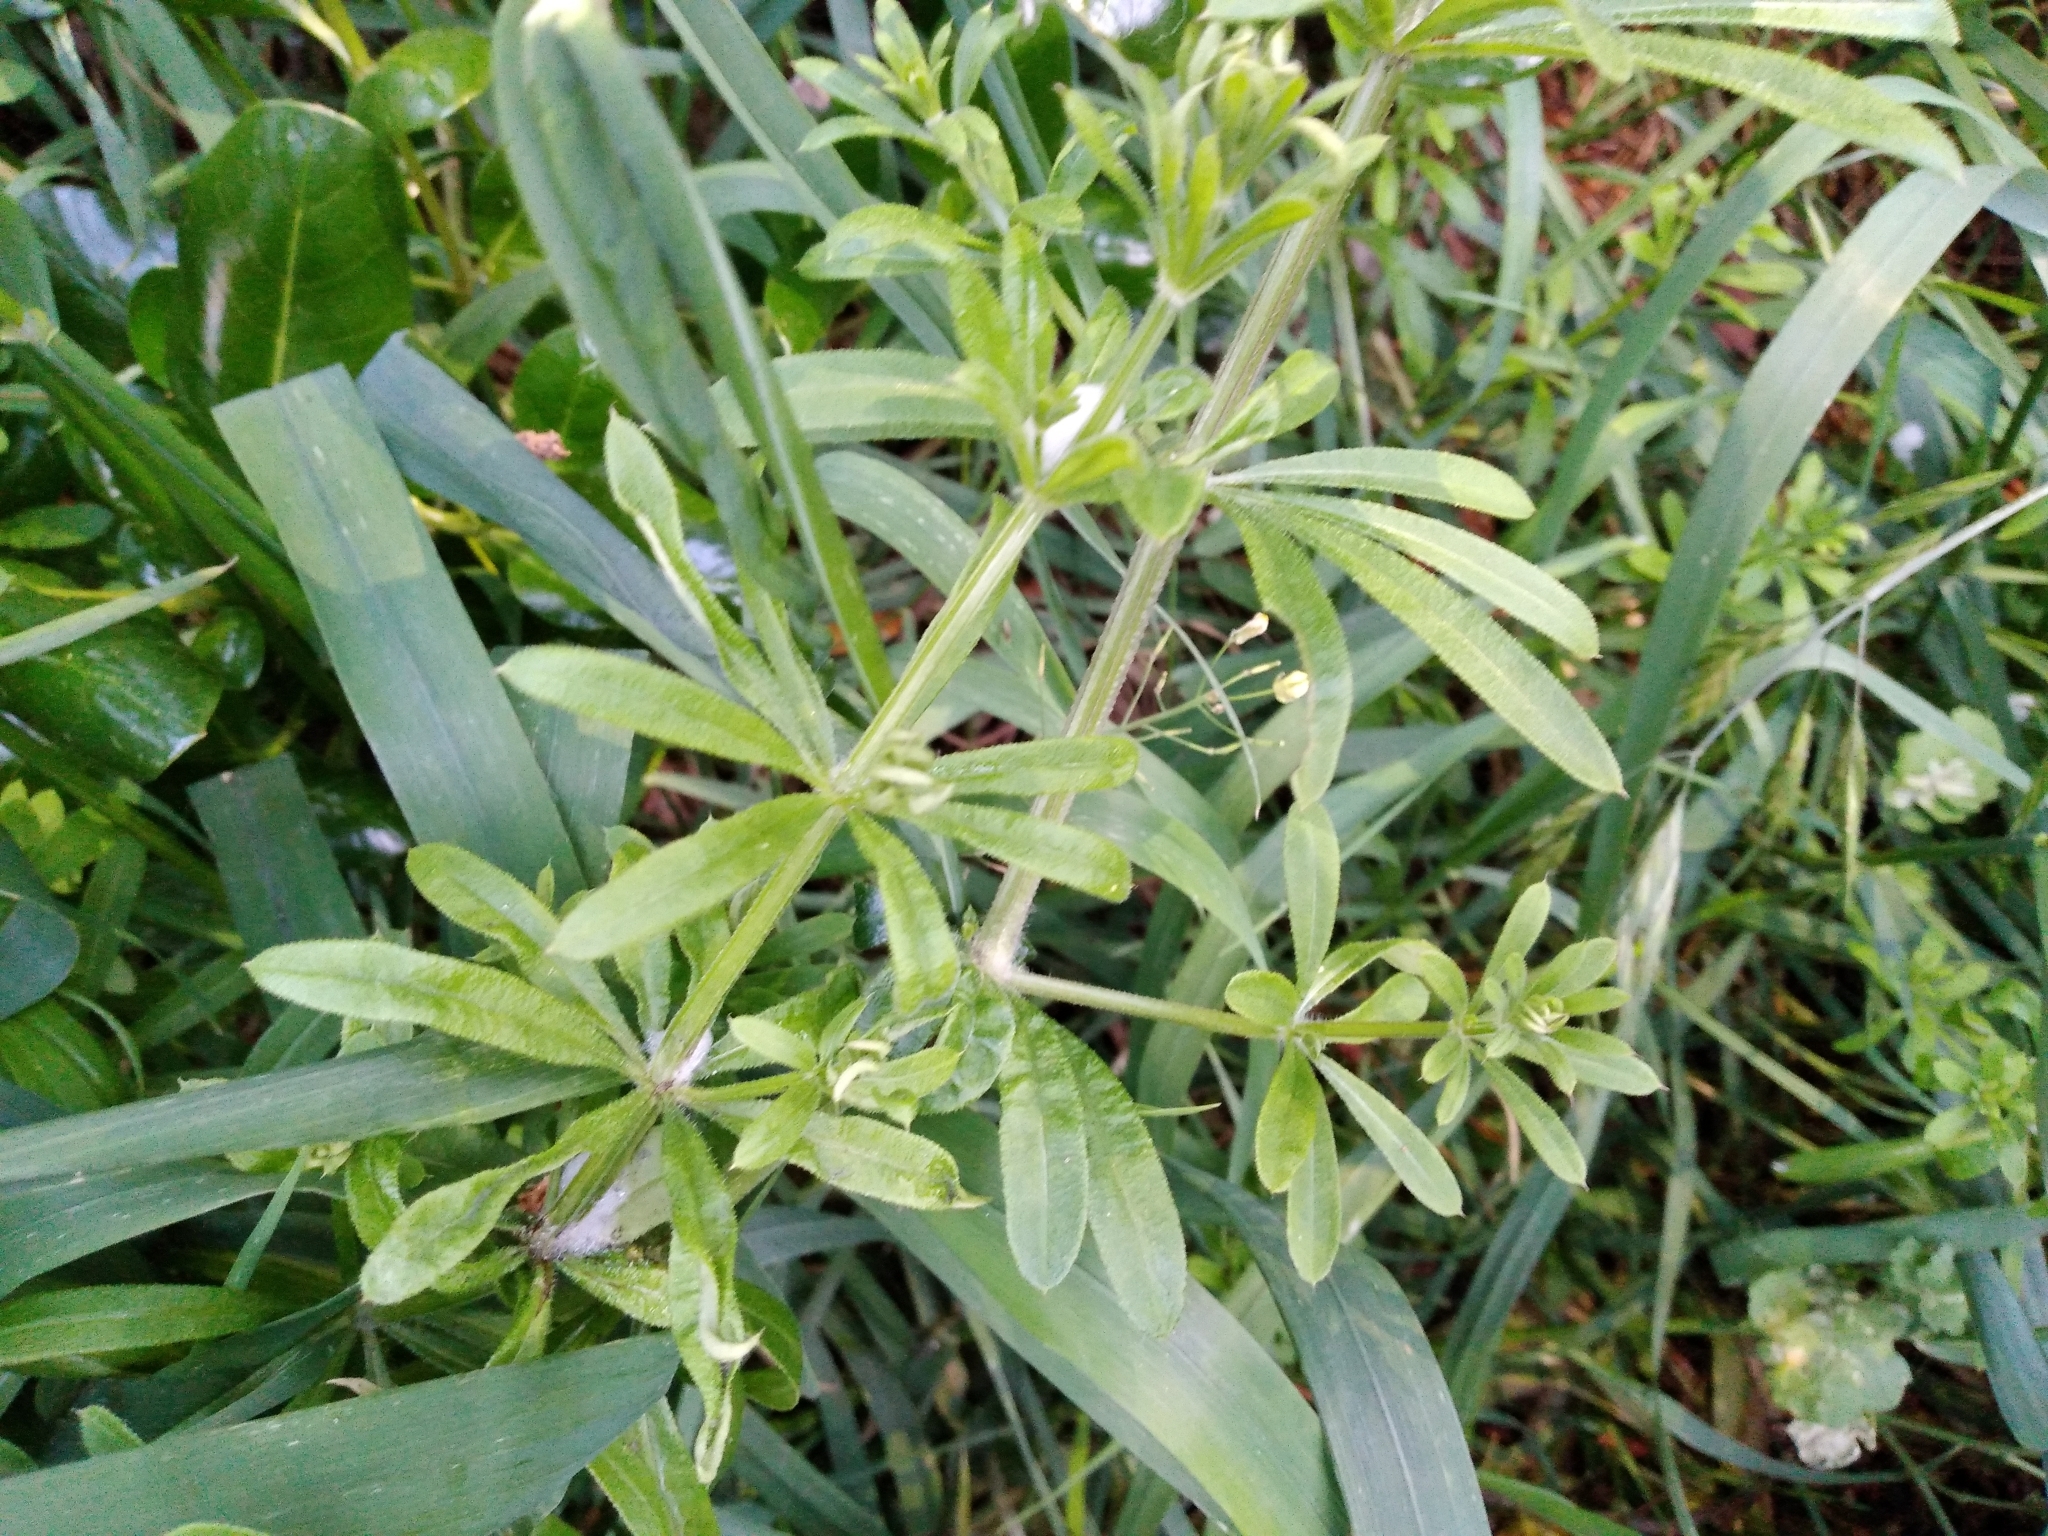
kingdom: Plantae
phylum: Tracheophyta
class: Magnoliopsida
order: Gentianales
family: Rubiaceae
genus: Galium
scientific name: Galium aparine
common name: Cleavers
